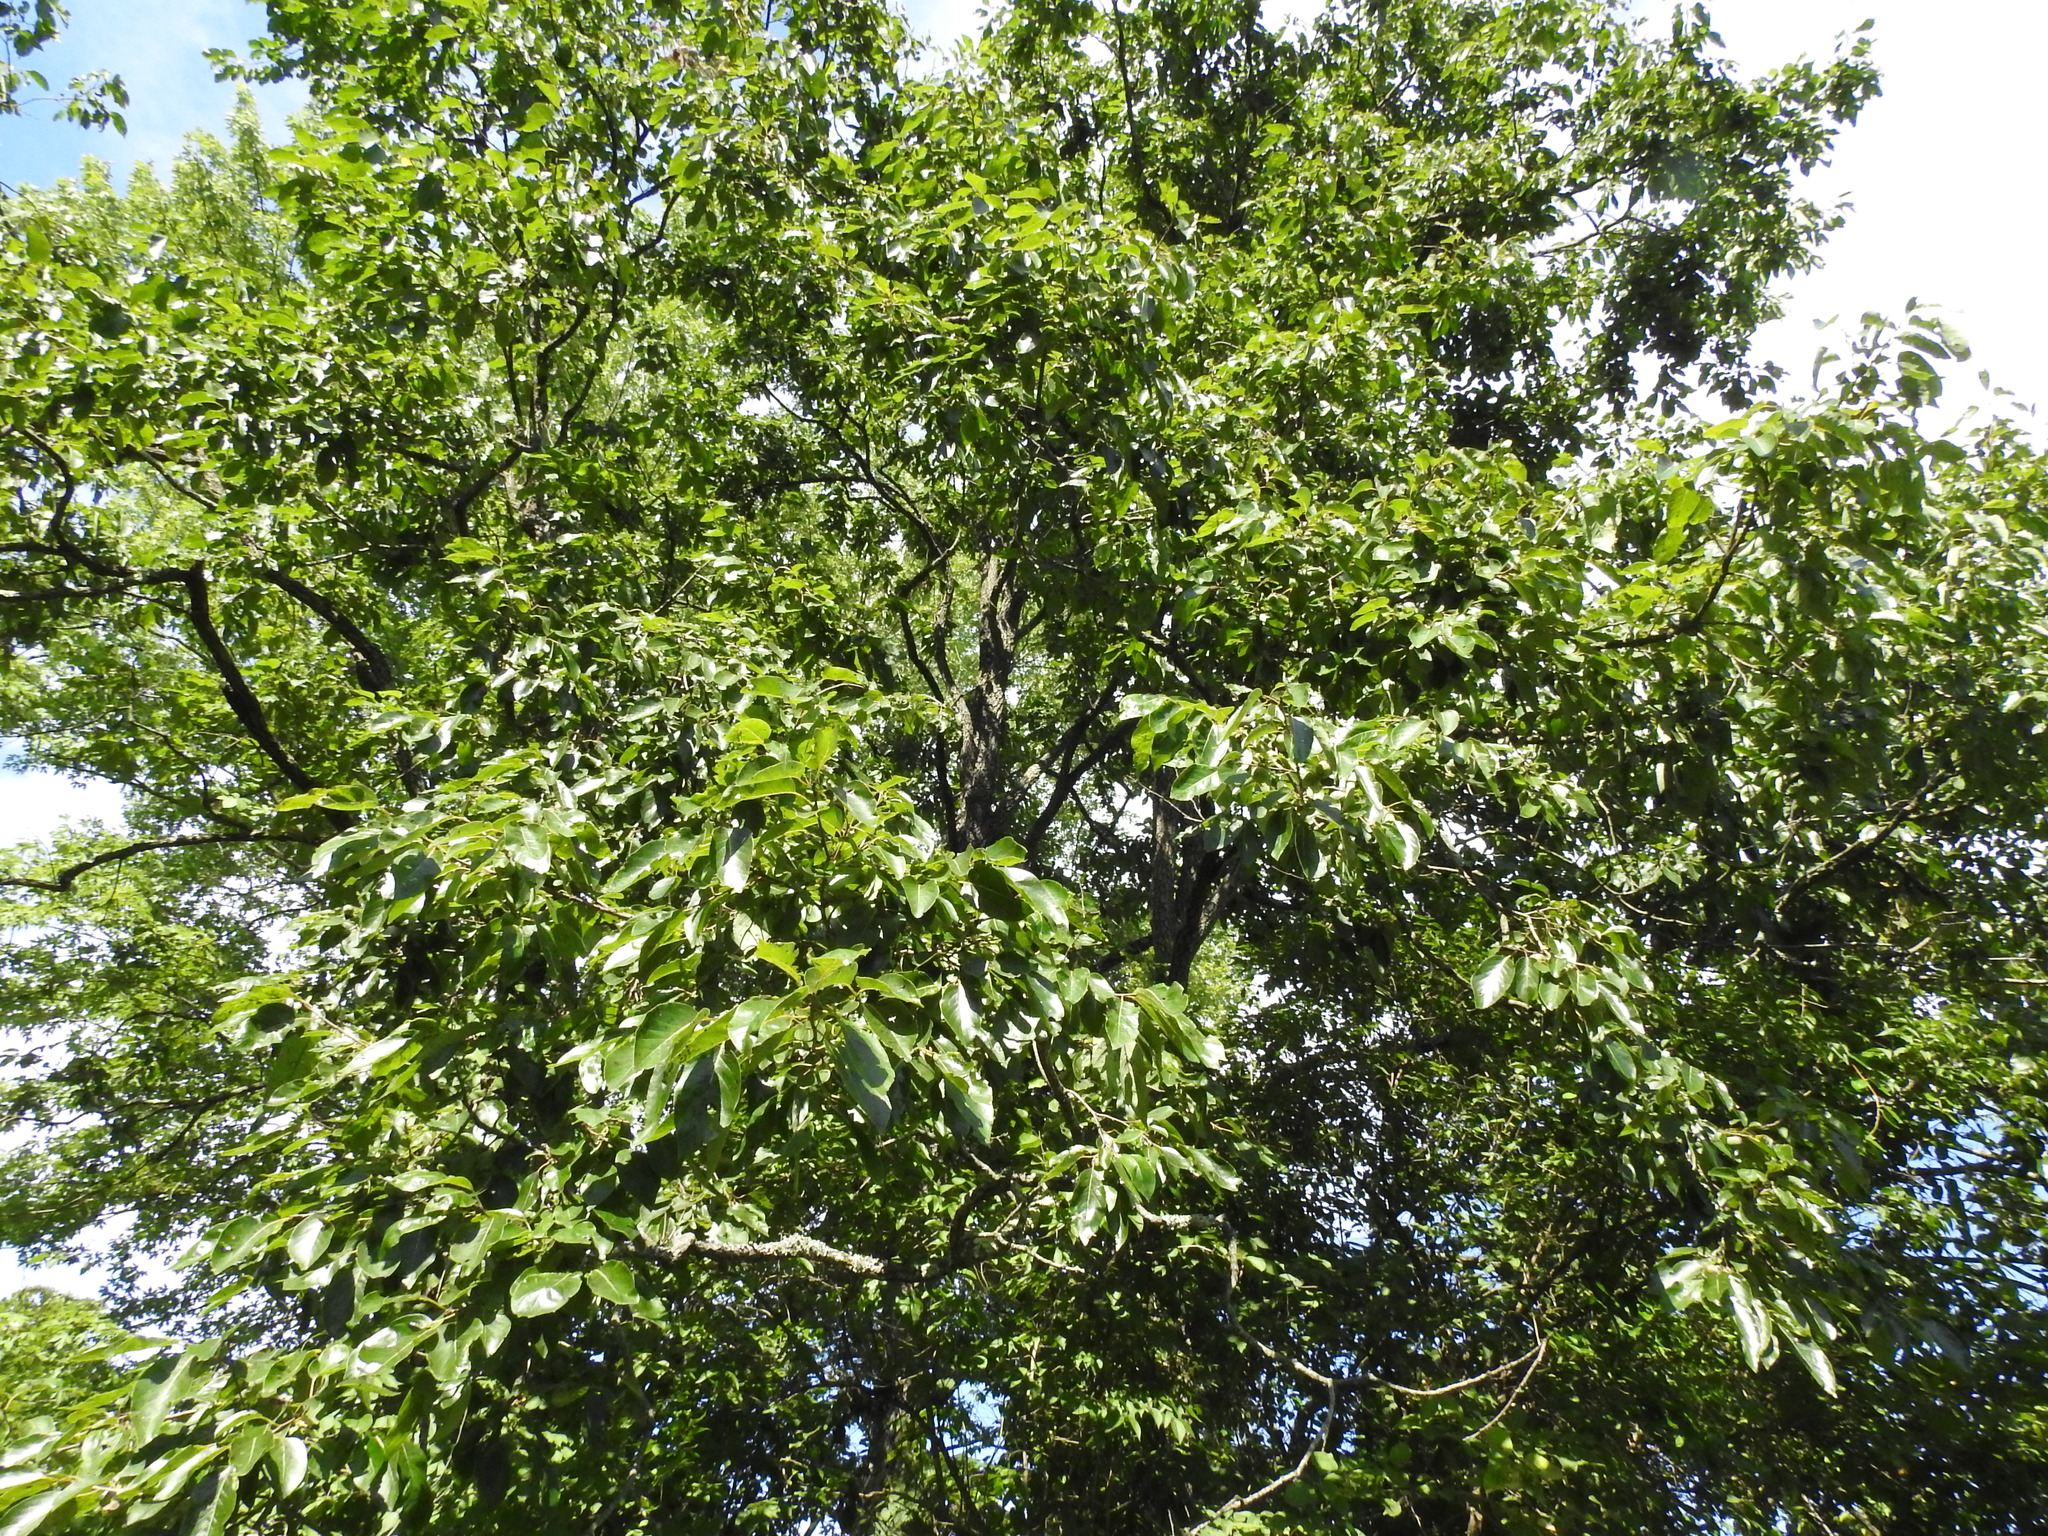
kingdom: Plantae
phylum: Tracheophyta
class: Magnoliopsida
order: Ericales
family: Ebenaceae
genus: Diospyros
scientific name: Diospyros virginiana
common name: Persimmon
